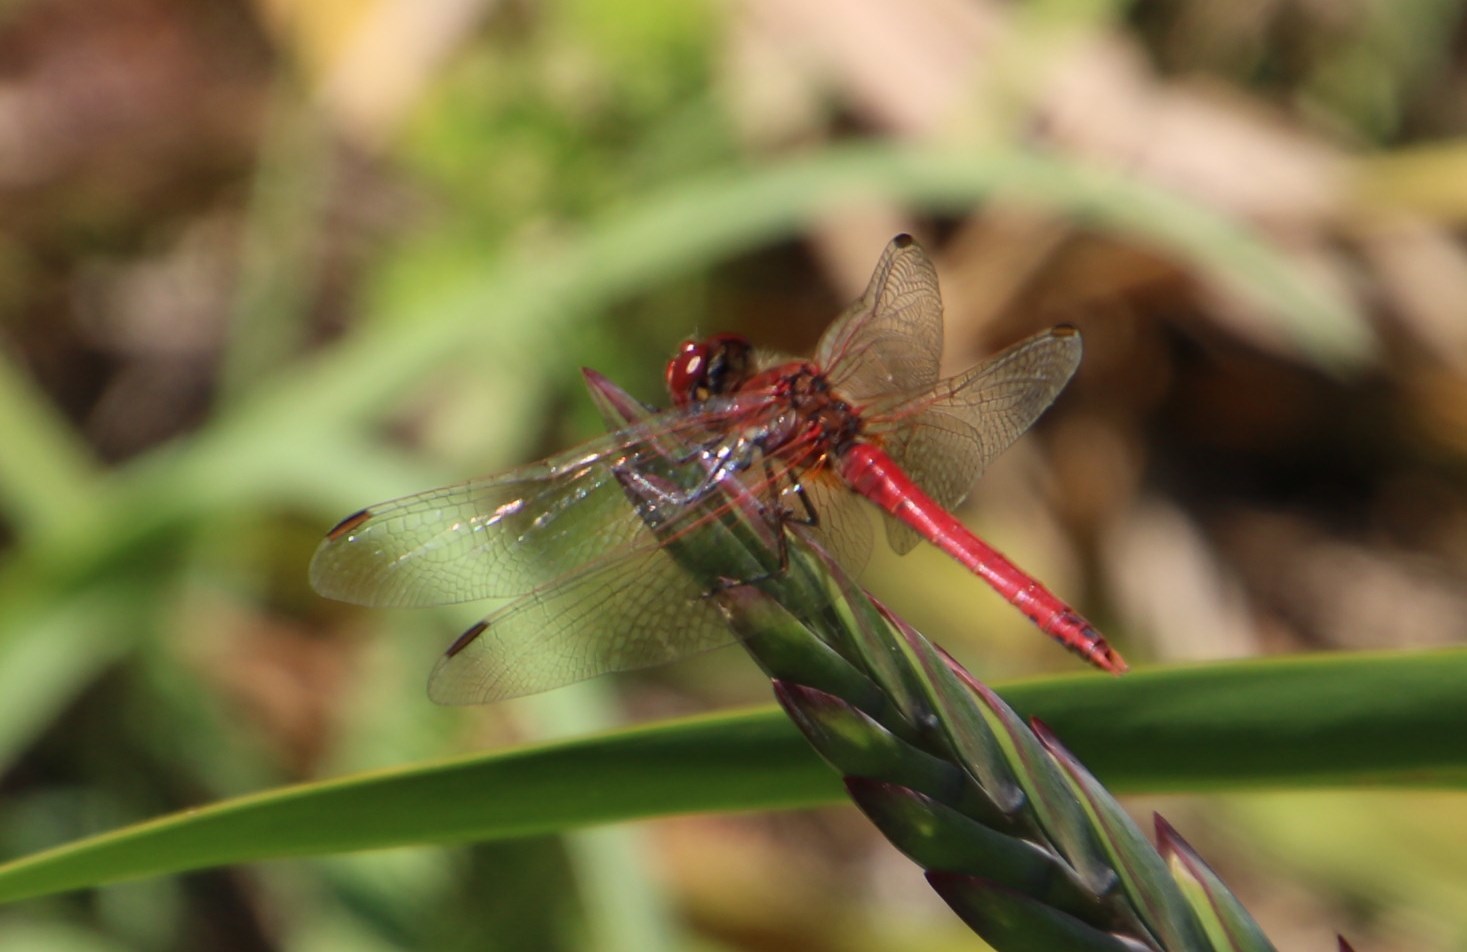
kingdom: Animalia
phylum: Arthropoda
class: Insecta
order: Odonata
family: Libellulidae
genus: Sympetrum
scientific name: Sympetrum fonscolombii
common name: Red-veined darter
